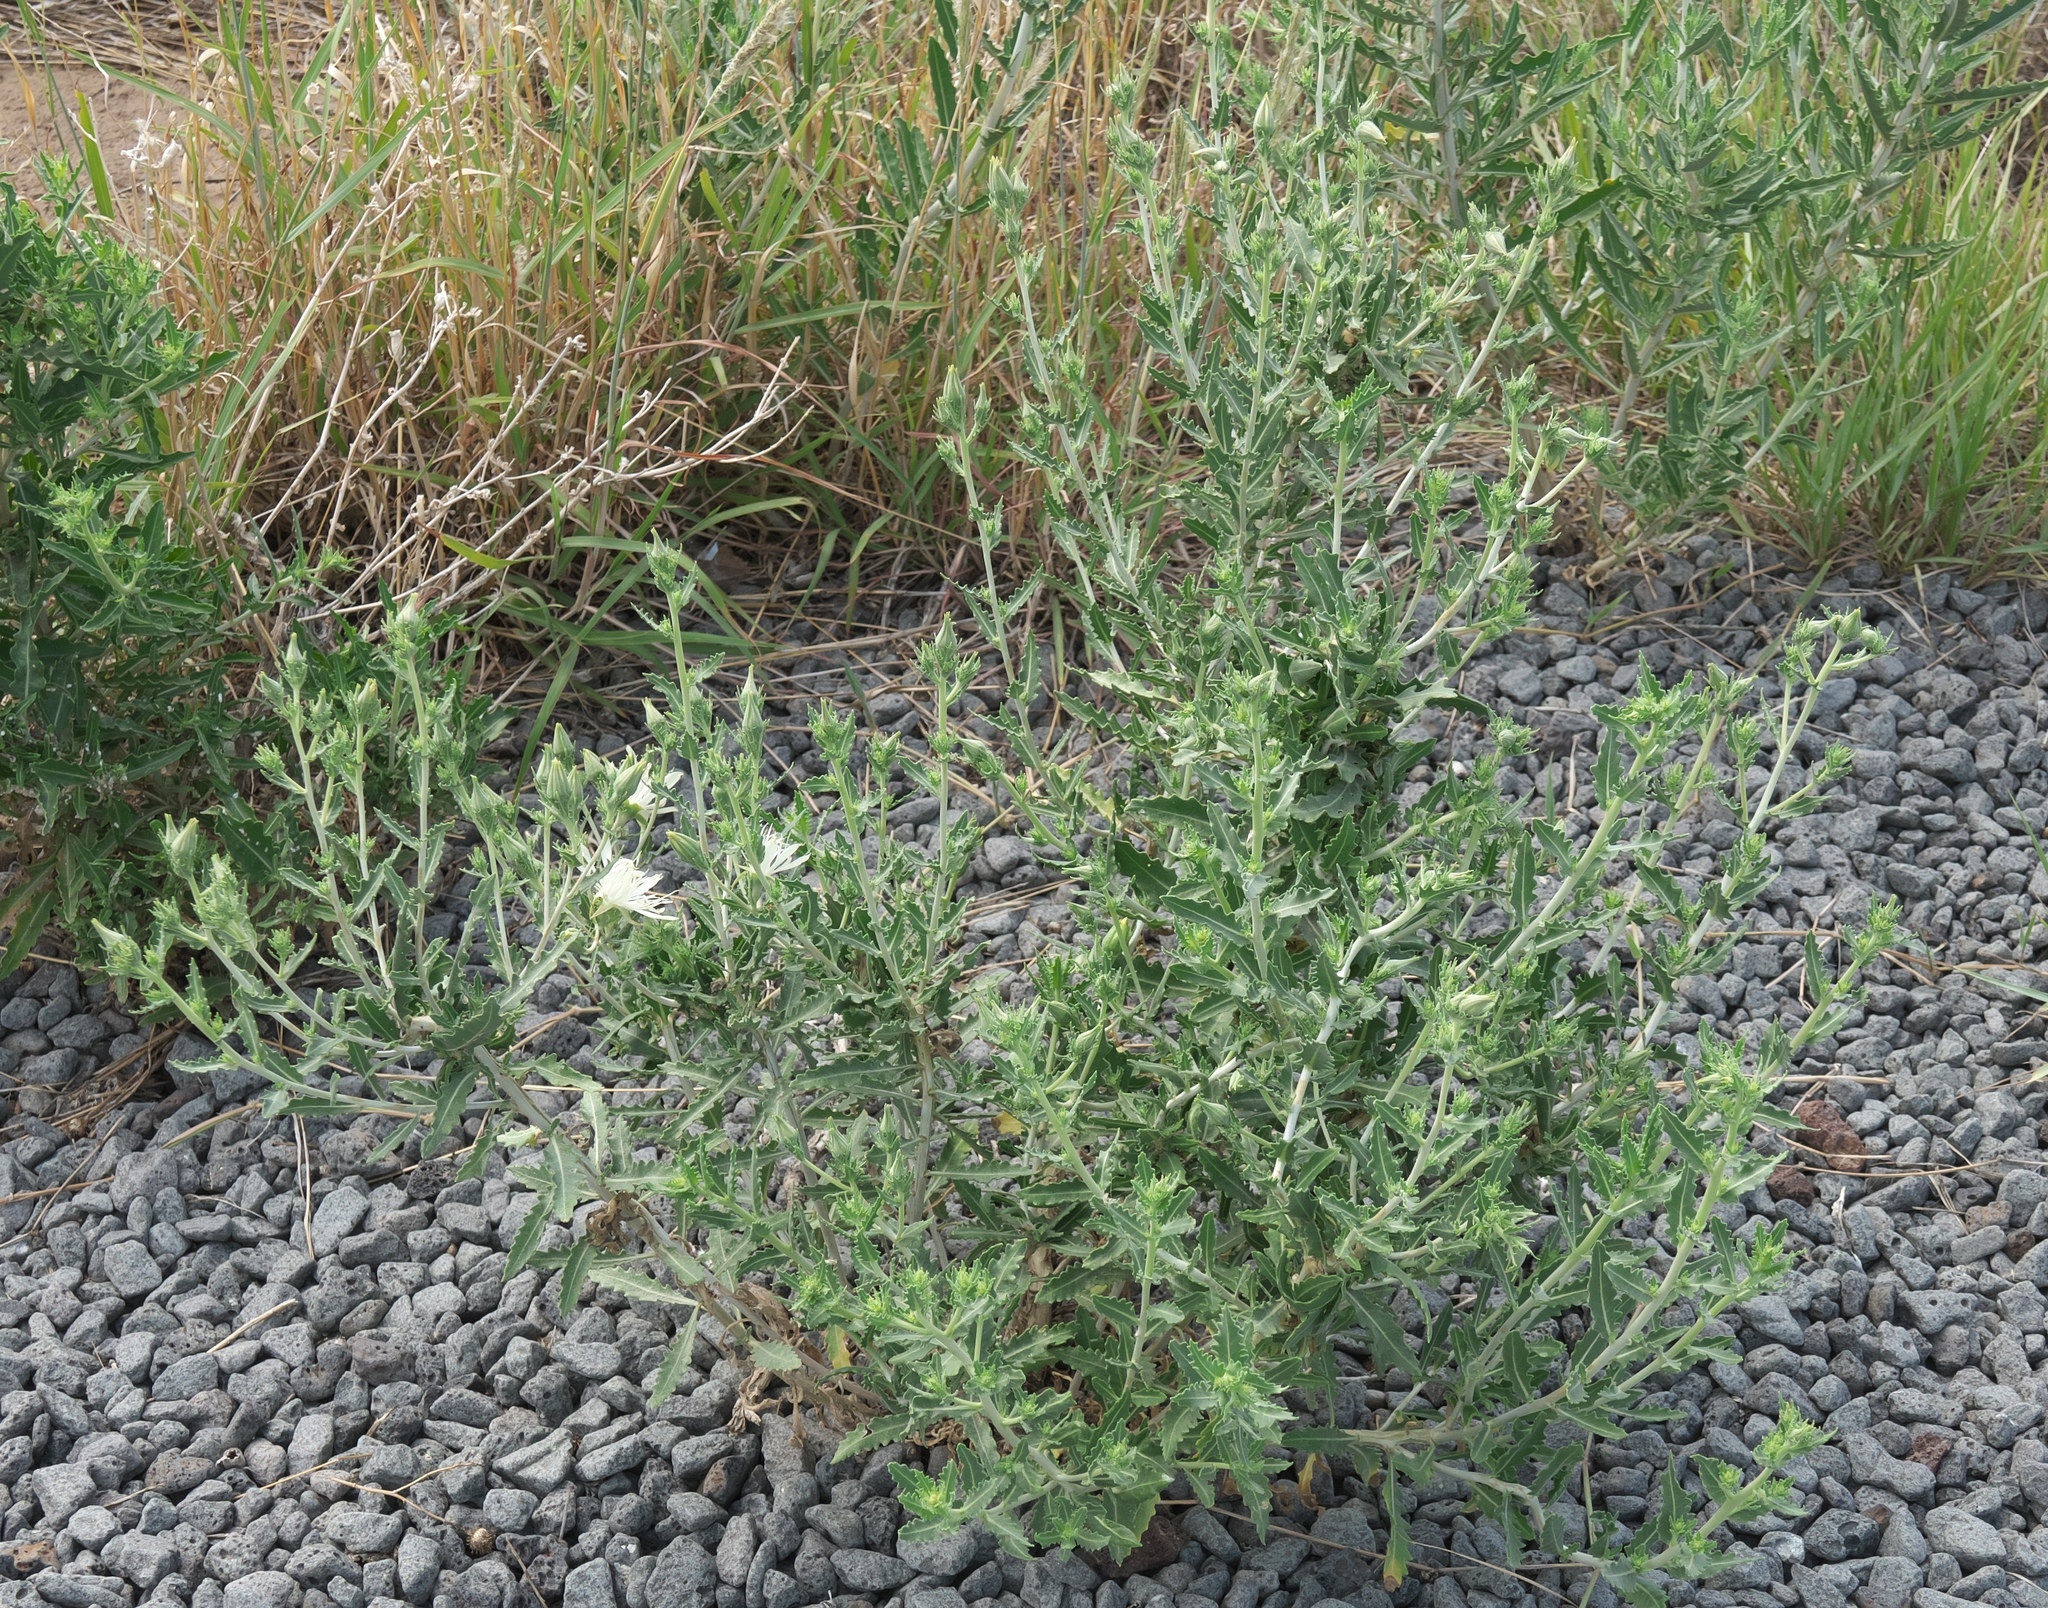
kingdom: Plantae
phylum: Tracheophyta
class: Magnoliopsida
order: Cornales
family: Loasaceae
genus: Mentzelia
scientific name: Mentzelia nuda
